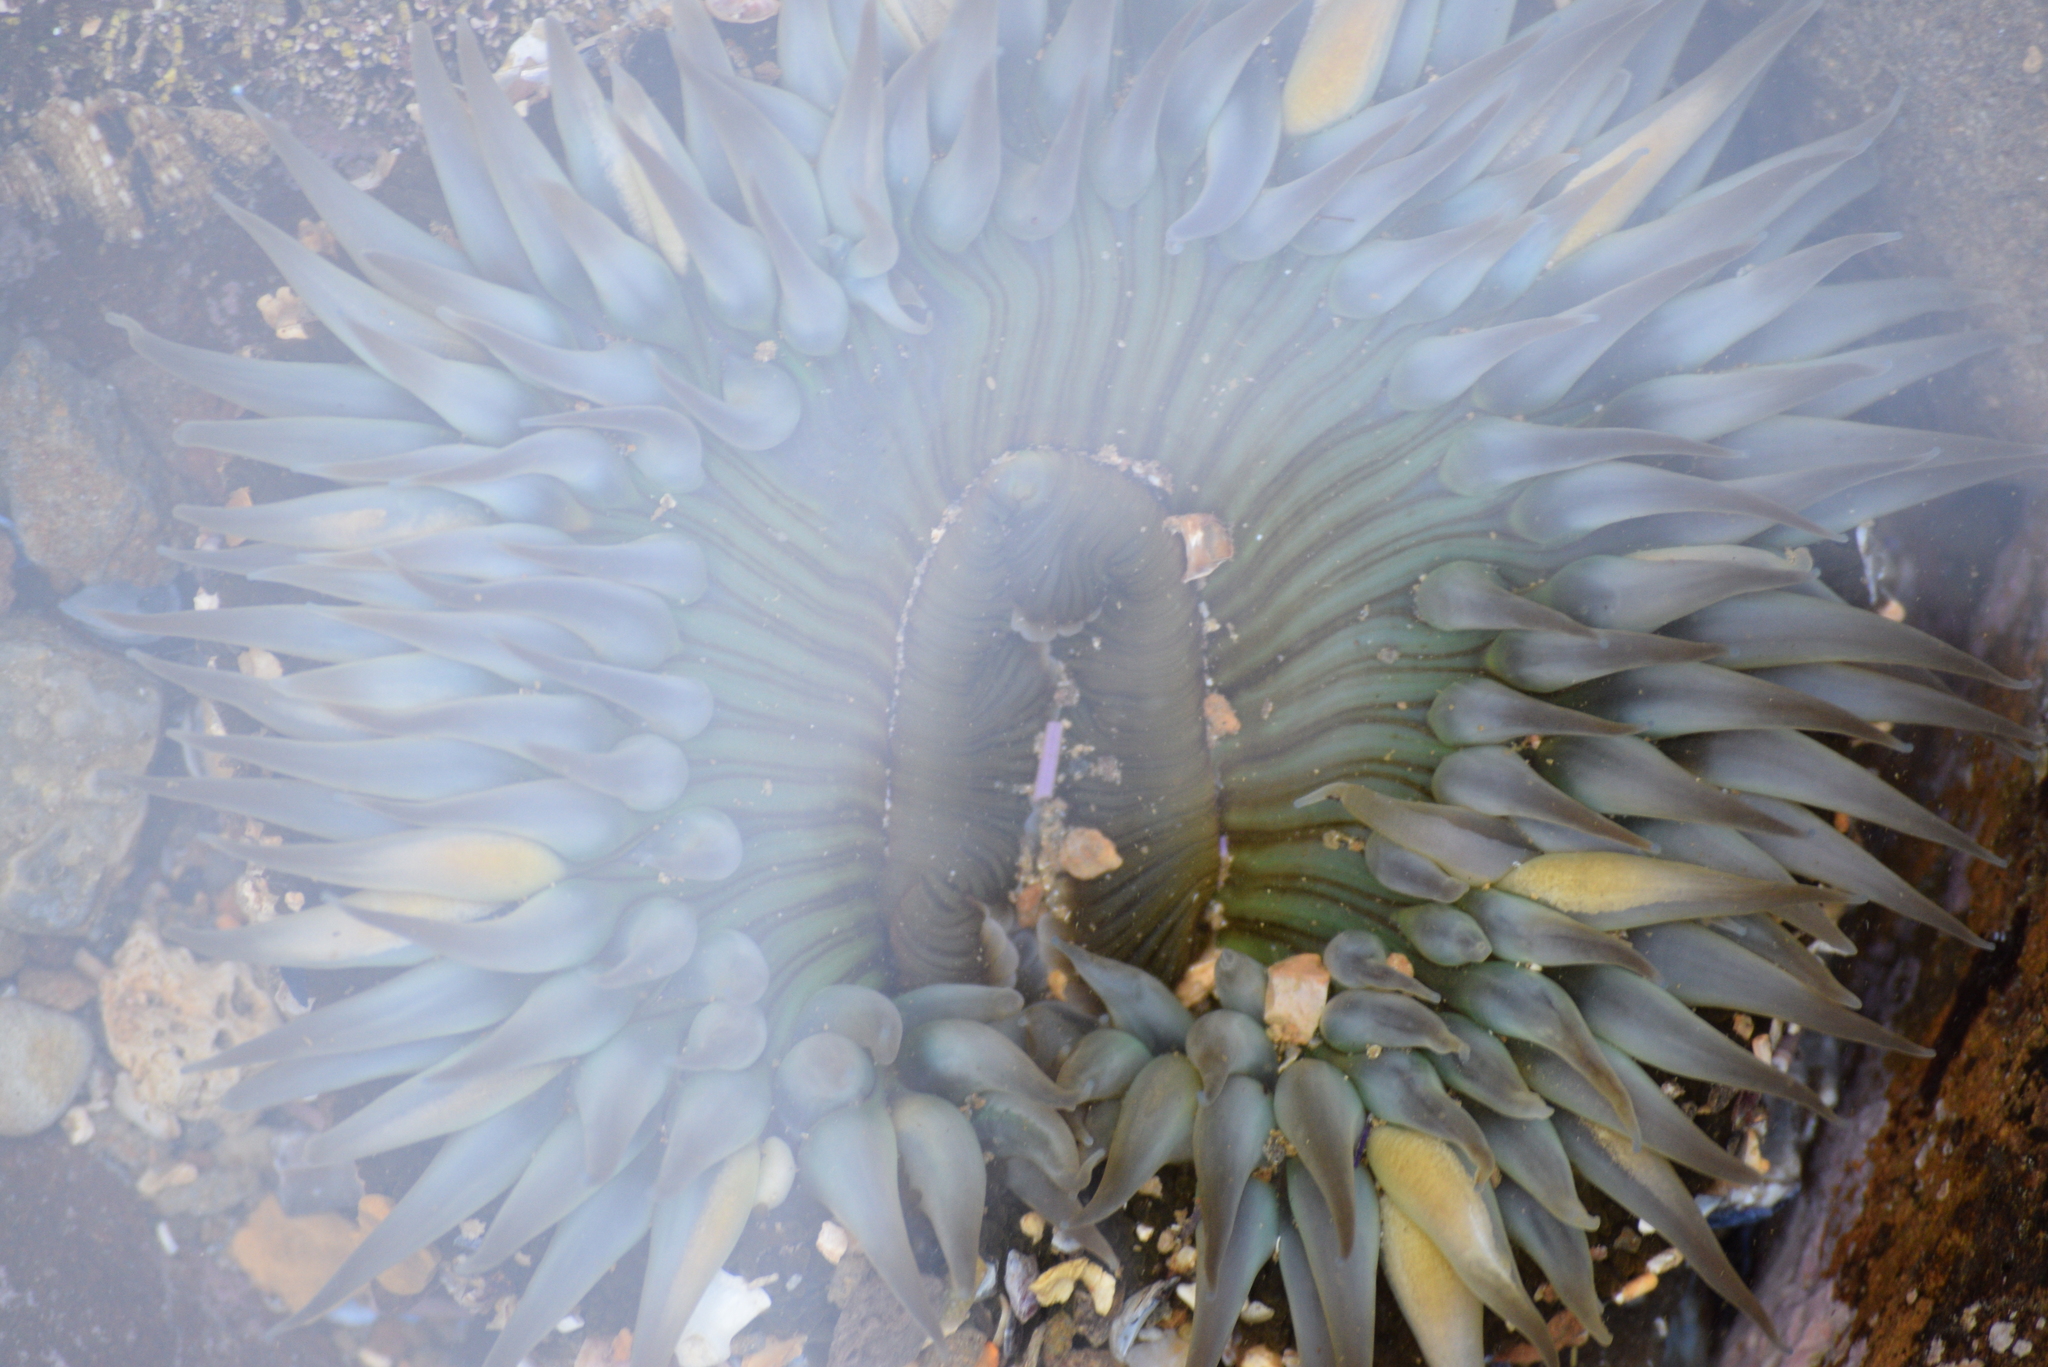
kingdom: Animalia
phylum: Cnidaria
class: Anthozoa
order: Actiniaria
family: Actiniidae
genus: Anthopleura
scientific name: Anthopleura sola
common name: Sun anemone
